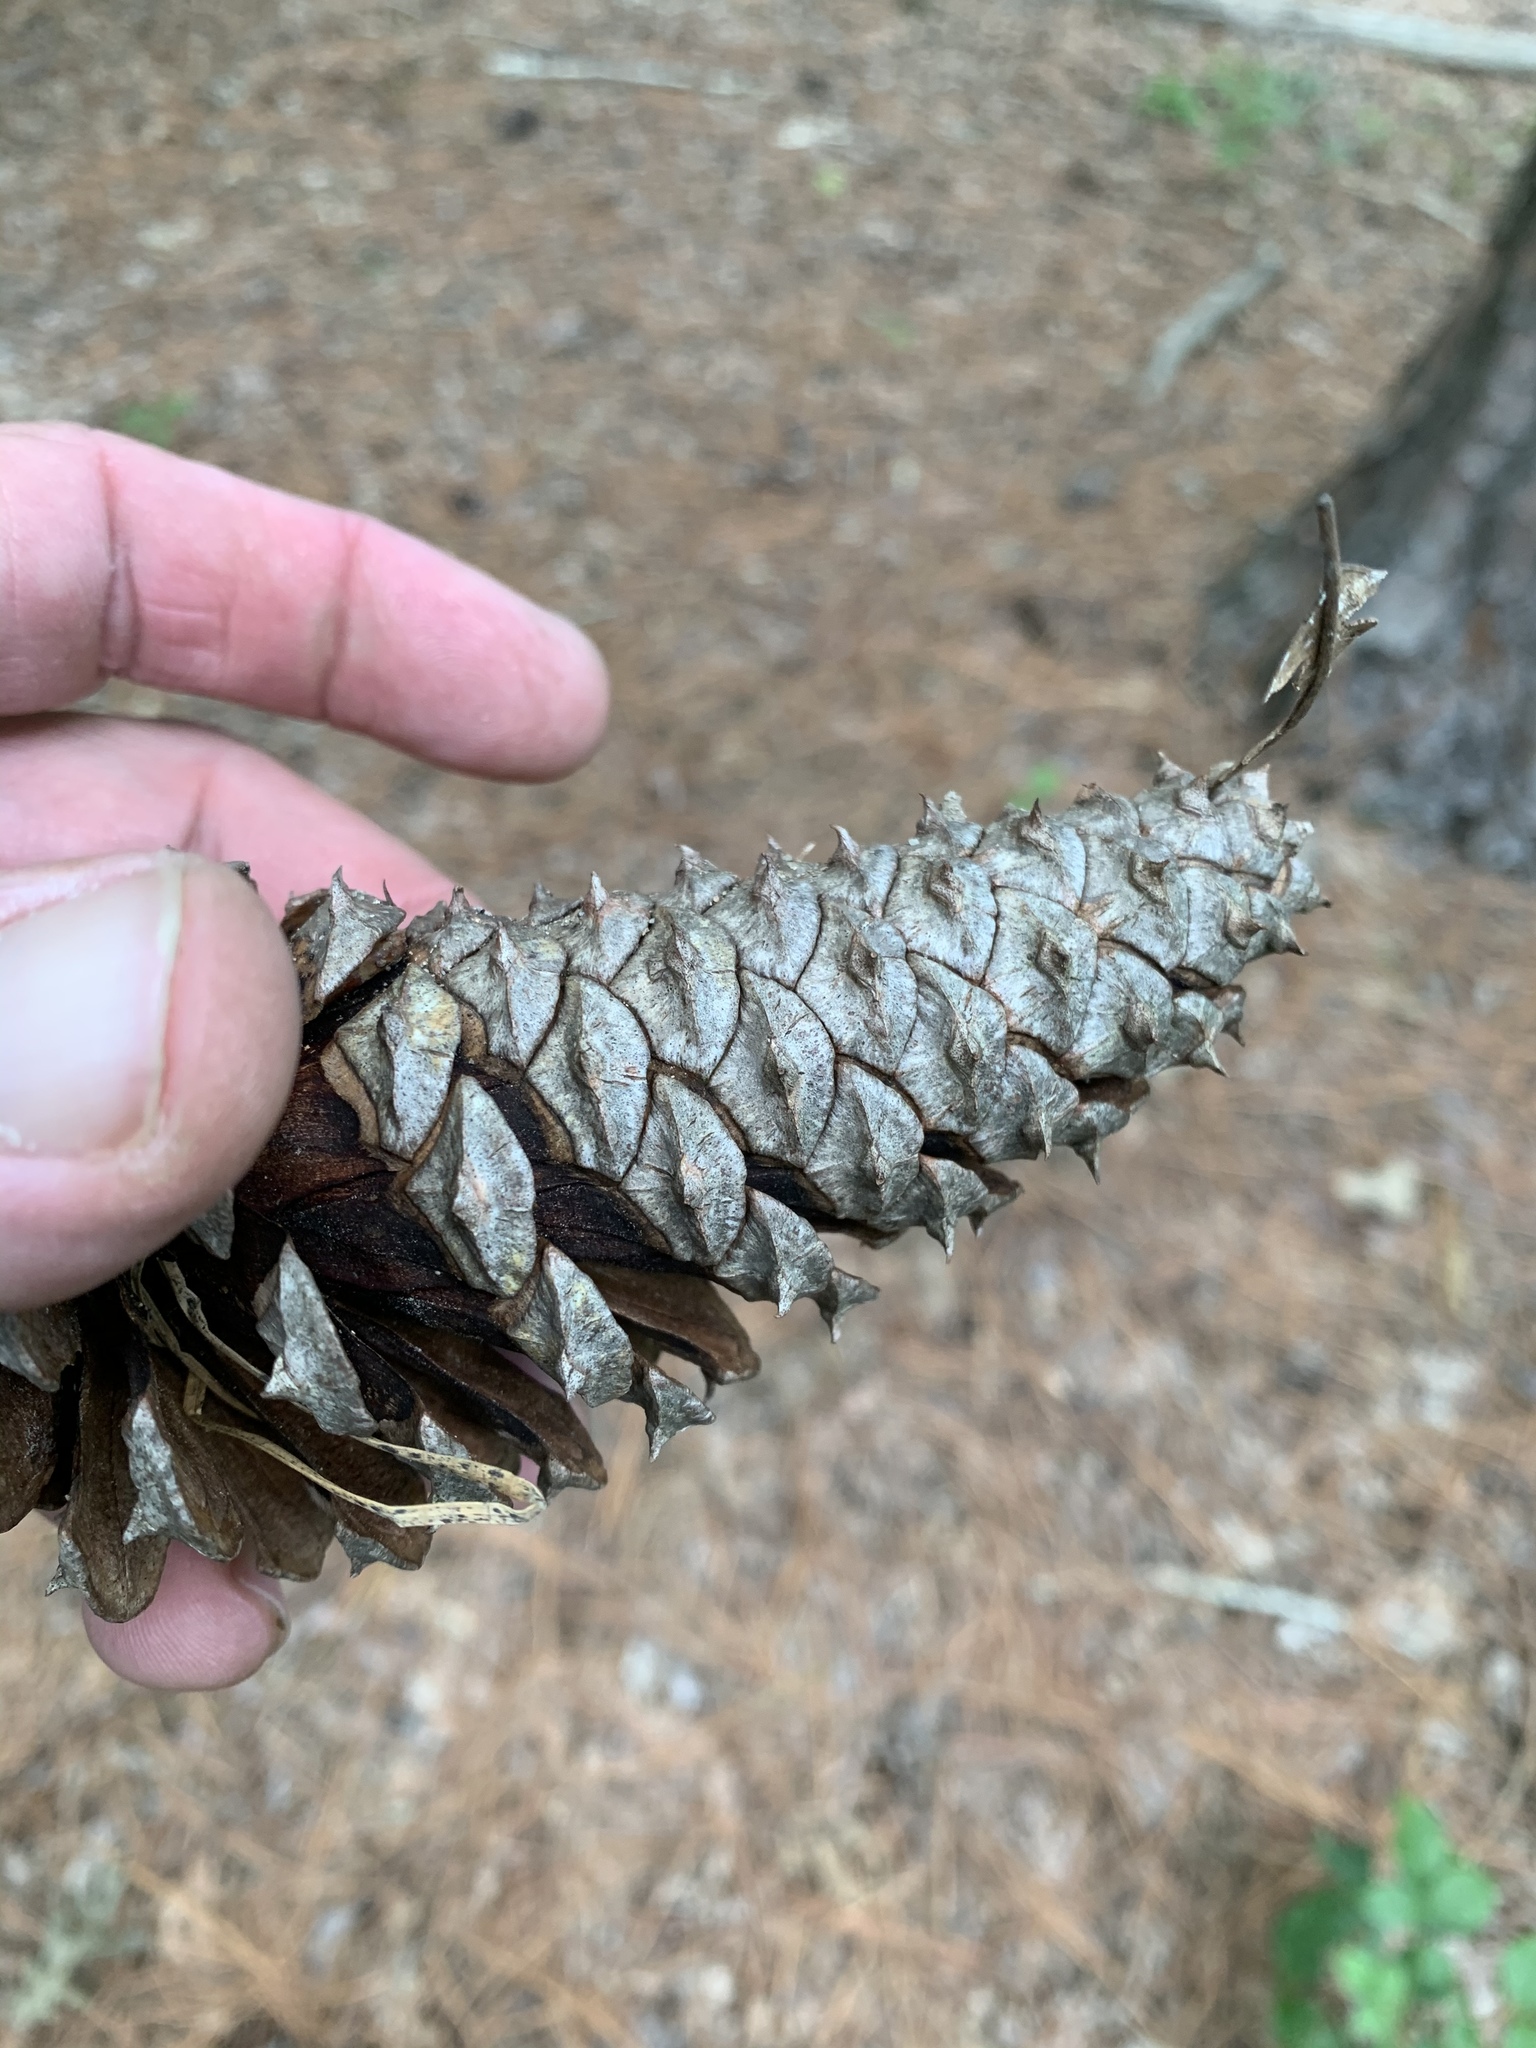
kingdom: Plantae
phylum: Tracheophyta
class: Pinopsida
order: Pinales
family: Pinaceae
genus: Pinus
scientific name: Pinus taeda
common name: Loblolly pine
